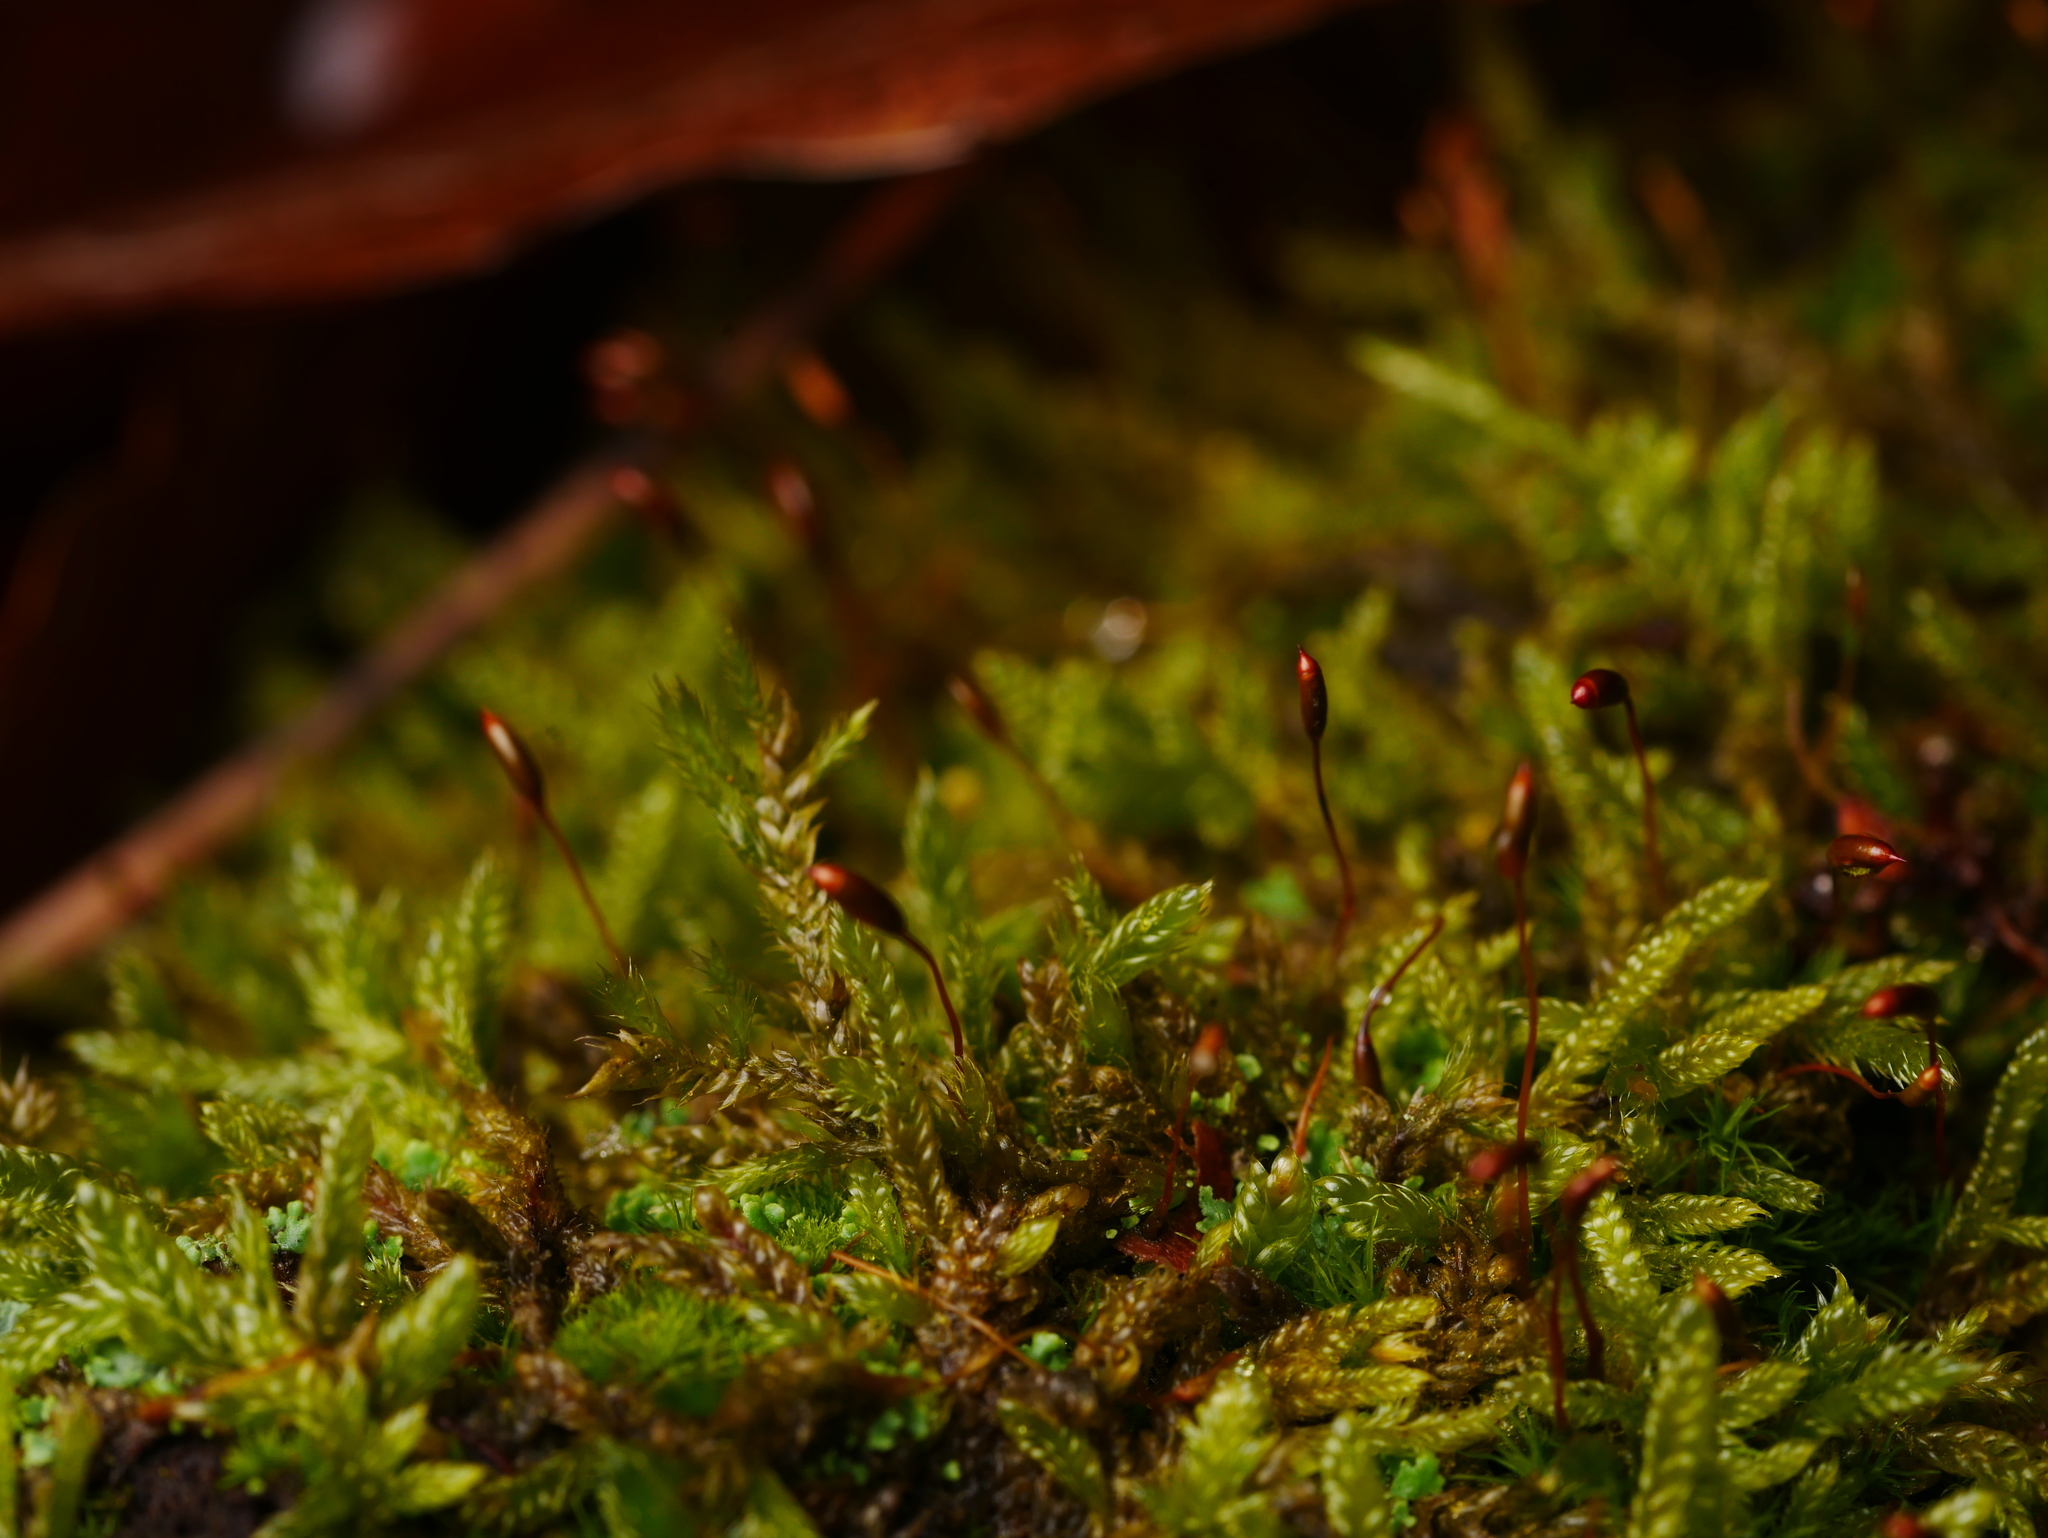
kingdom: Plantae
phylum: Bryophyta
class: Bryopsida
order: Hypnales
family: Hypnaceae
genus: Hypnum
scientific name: Hypnum cupressiforme
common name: Cypress-leaved plait-moss
